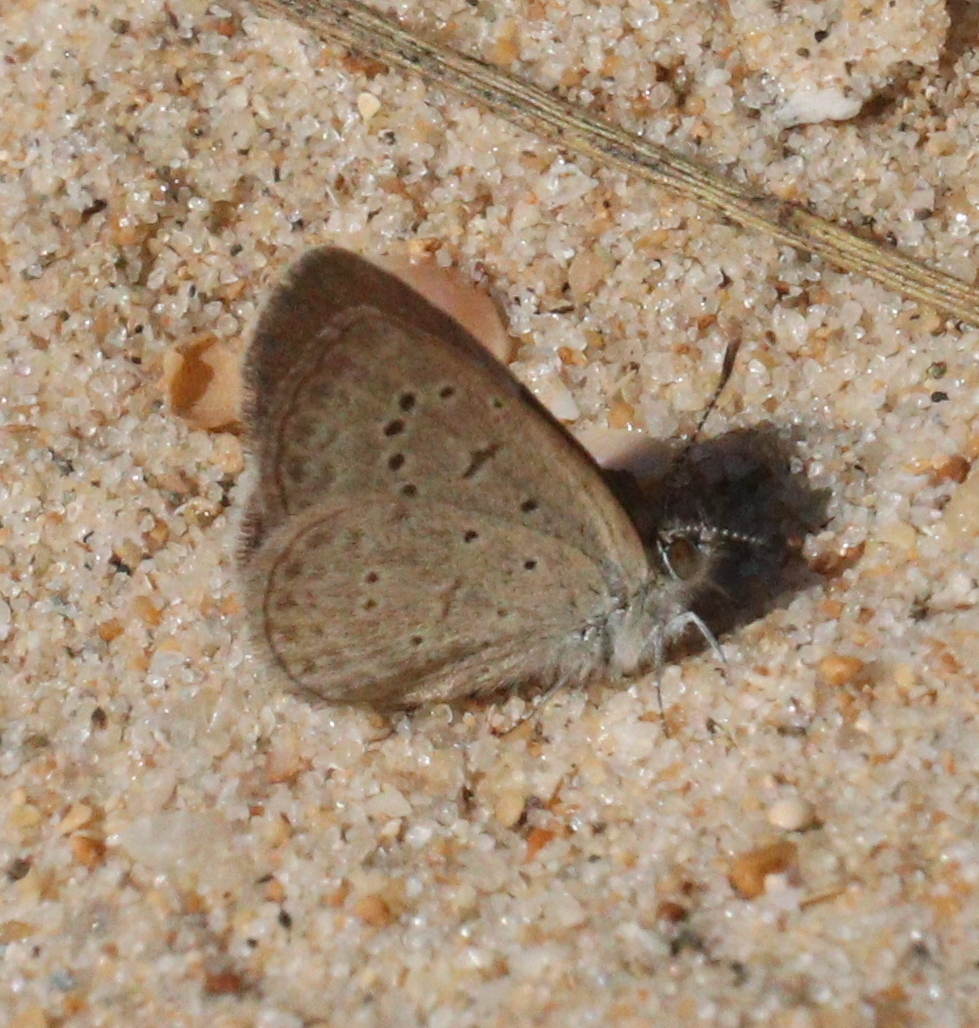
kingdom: Animalia
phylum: Arthropoda
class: Insecta
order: Lepidoptera
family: Lycaenidae
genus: Zizeeria
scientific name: Zizeeria knysna
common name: African grass blue
